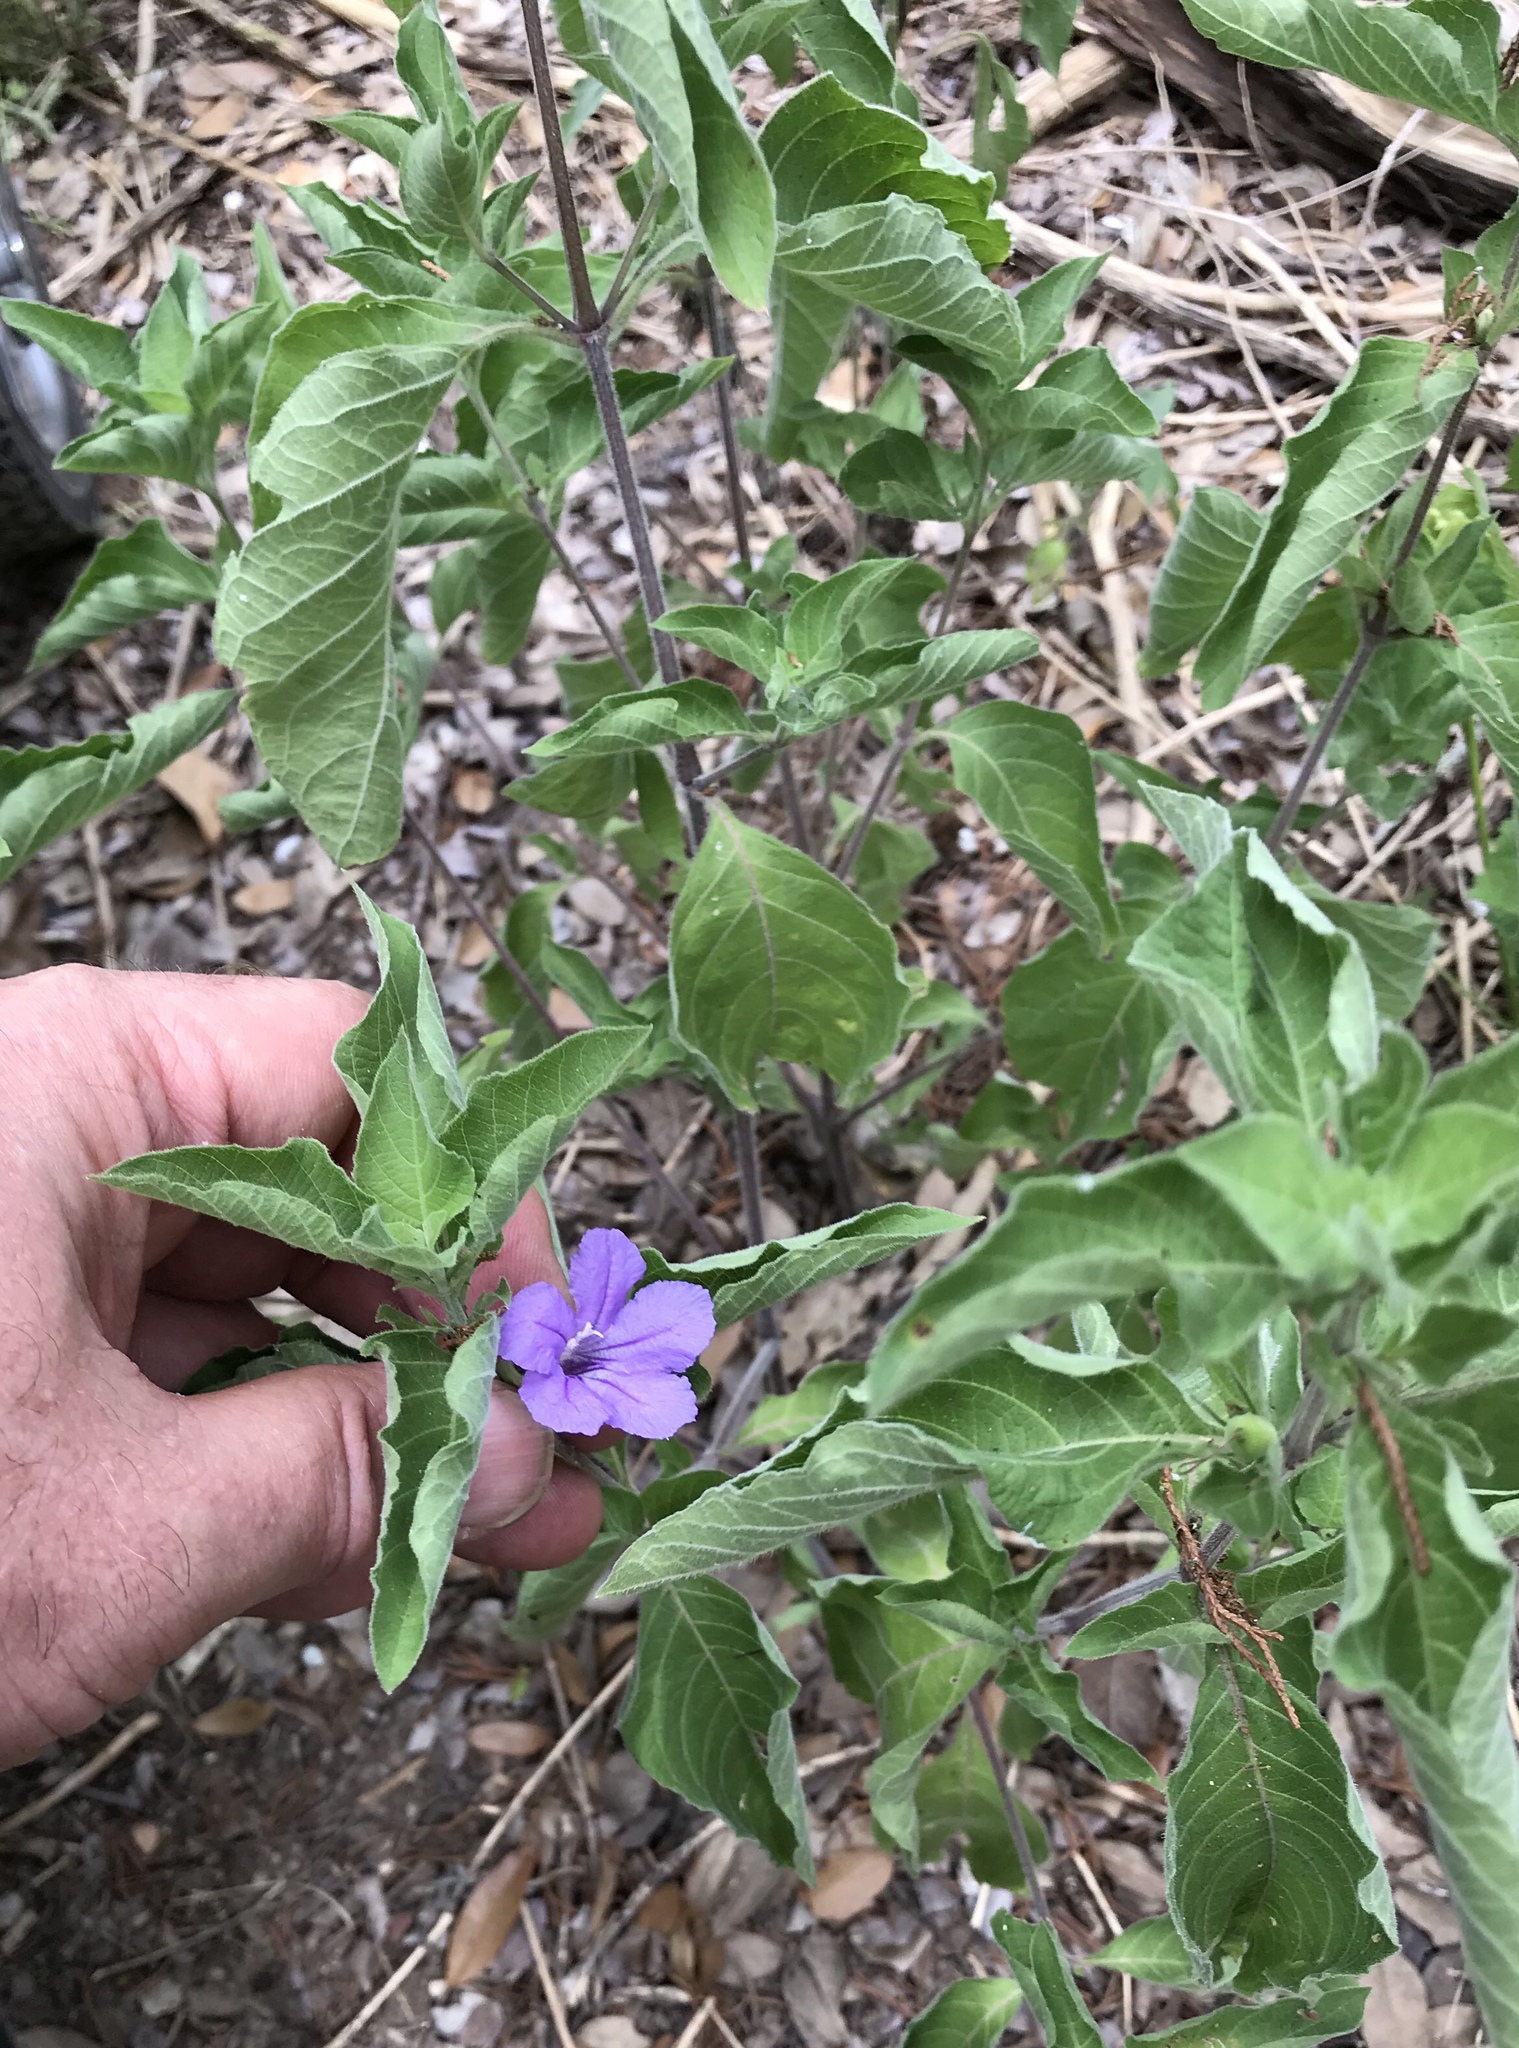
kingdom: Plantae
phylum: Tracheophyta
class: Magnoliopsida
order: Lamiales
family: Acanthaceae
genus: Ruellia
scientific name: Ruellia drummondiana
